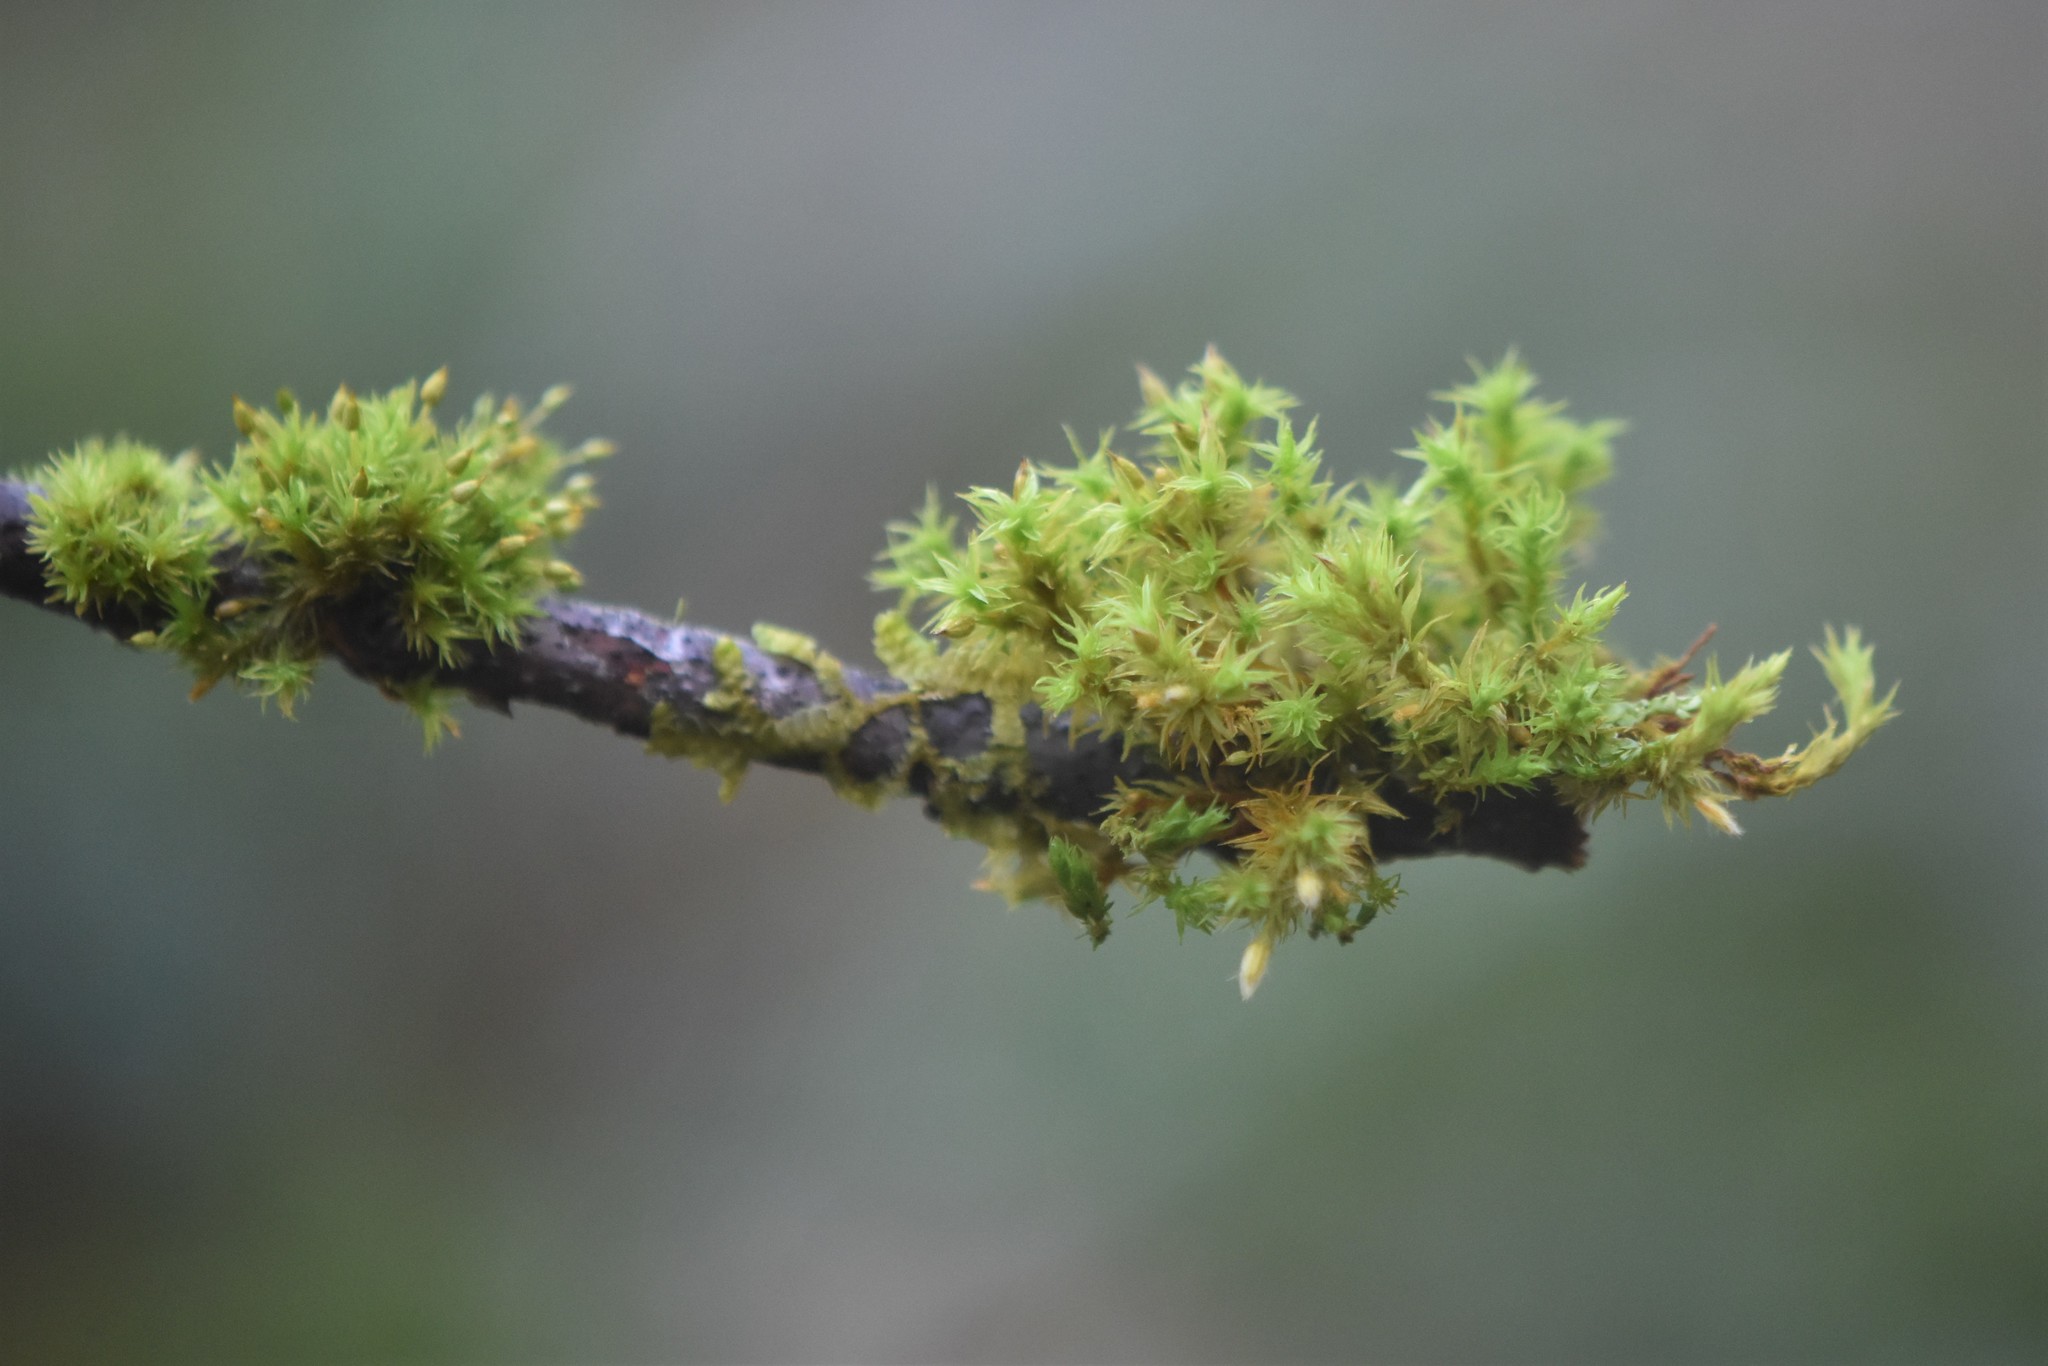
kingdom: Plantae
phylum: Bryophyta
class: Bryopsida
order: Orthotrichales
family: Orthotrichaceae
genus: Pulvigera
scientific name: Pulvigera lyellii
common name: Lyell's bristle-moss
